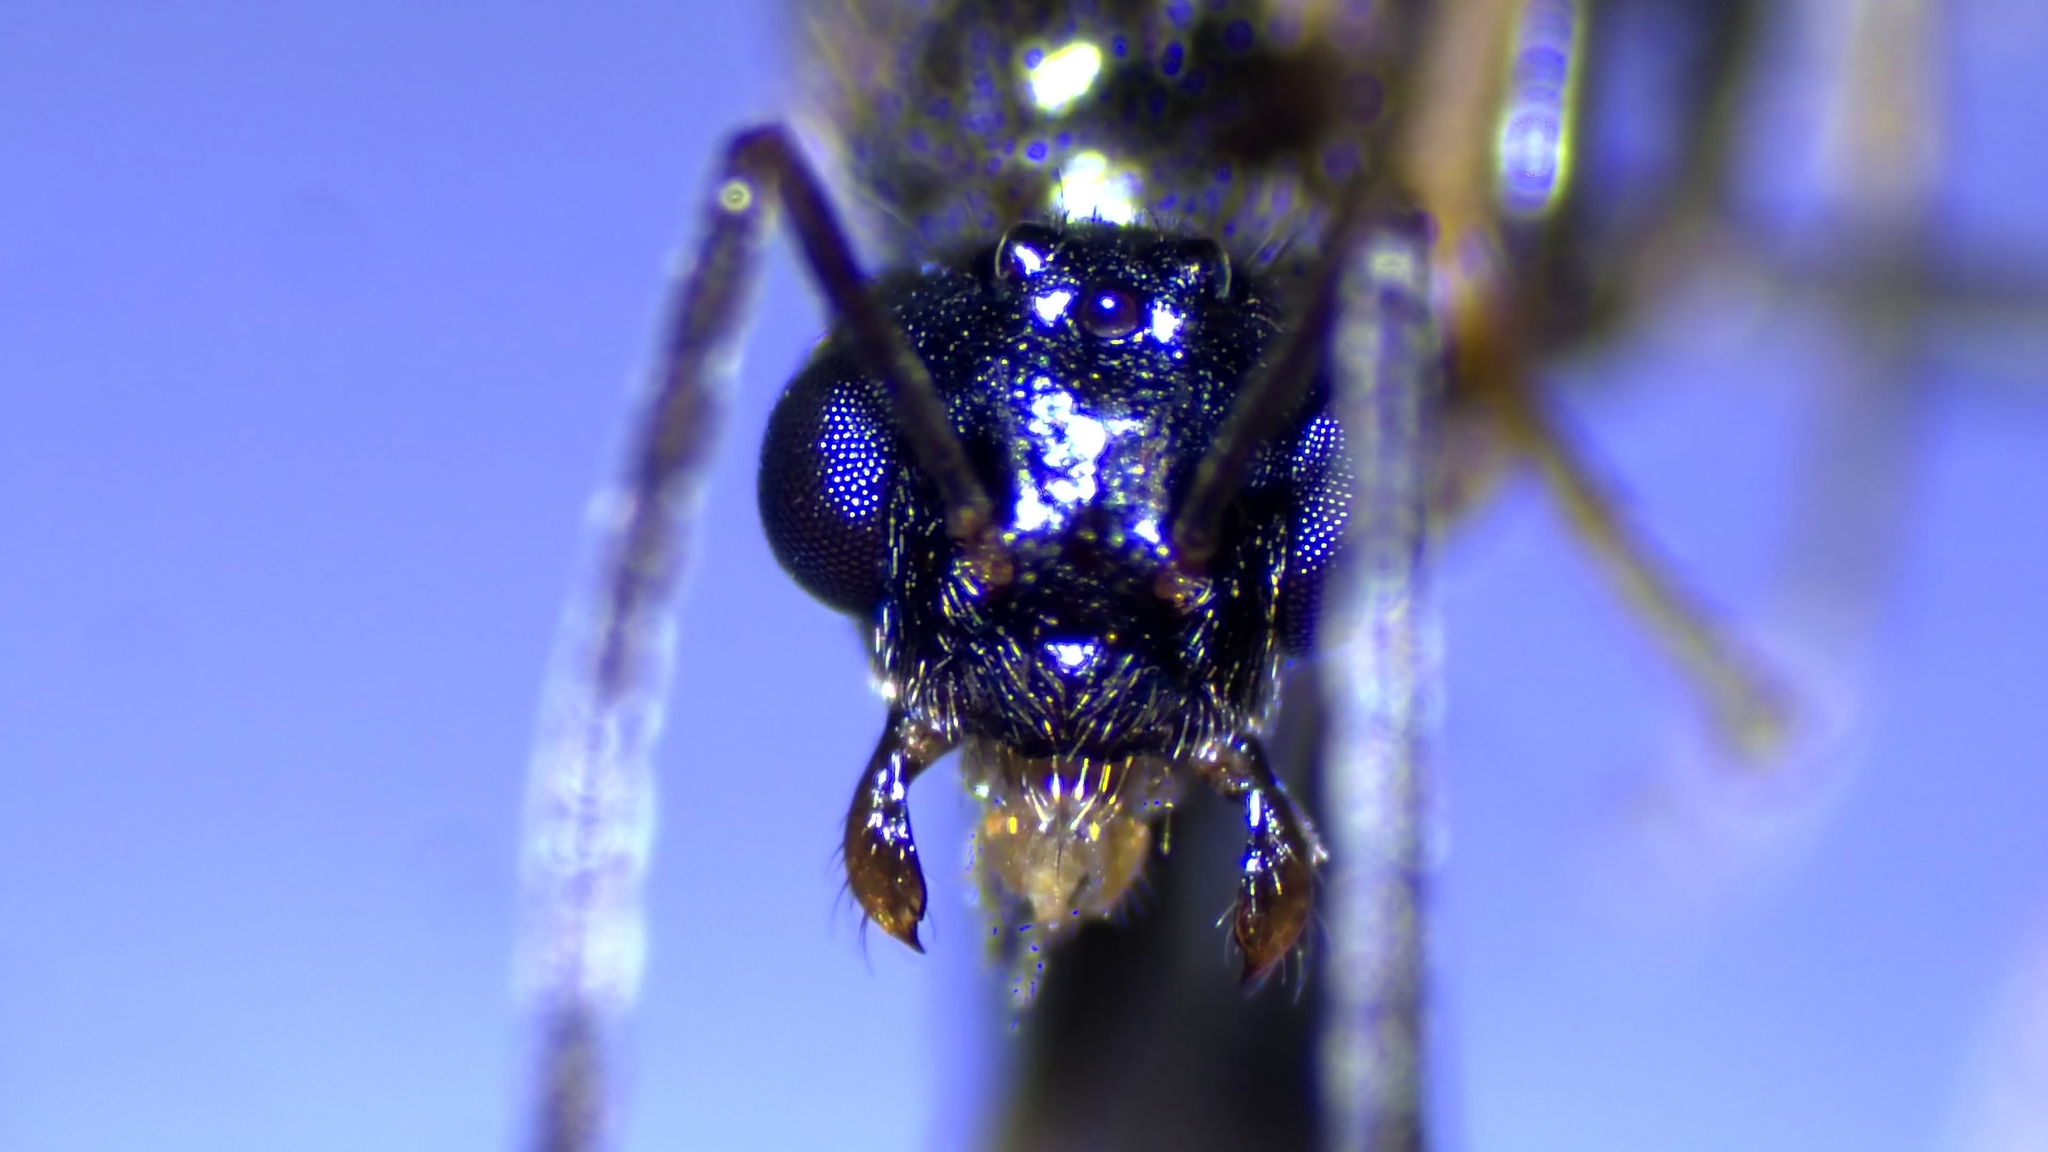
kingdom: Animalia
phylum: Arthropoda
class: Insecta
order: Hymenoptera
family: Formicidae
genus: Prenolepis
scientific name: Prenolepis imparis
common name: Small honey ant
